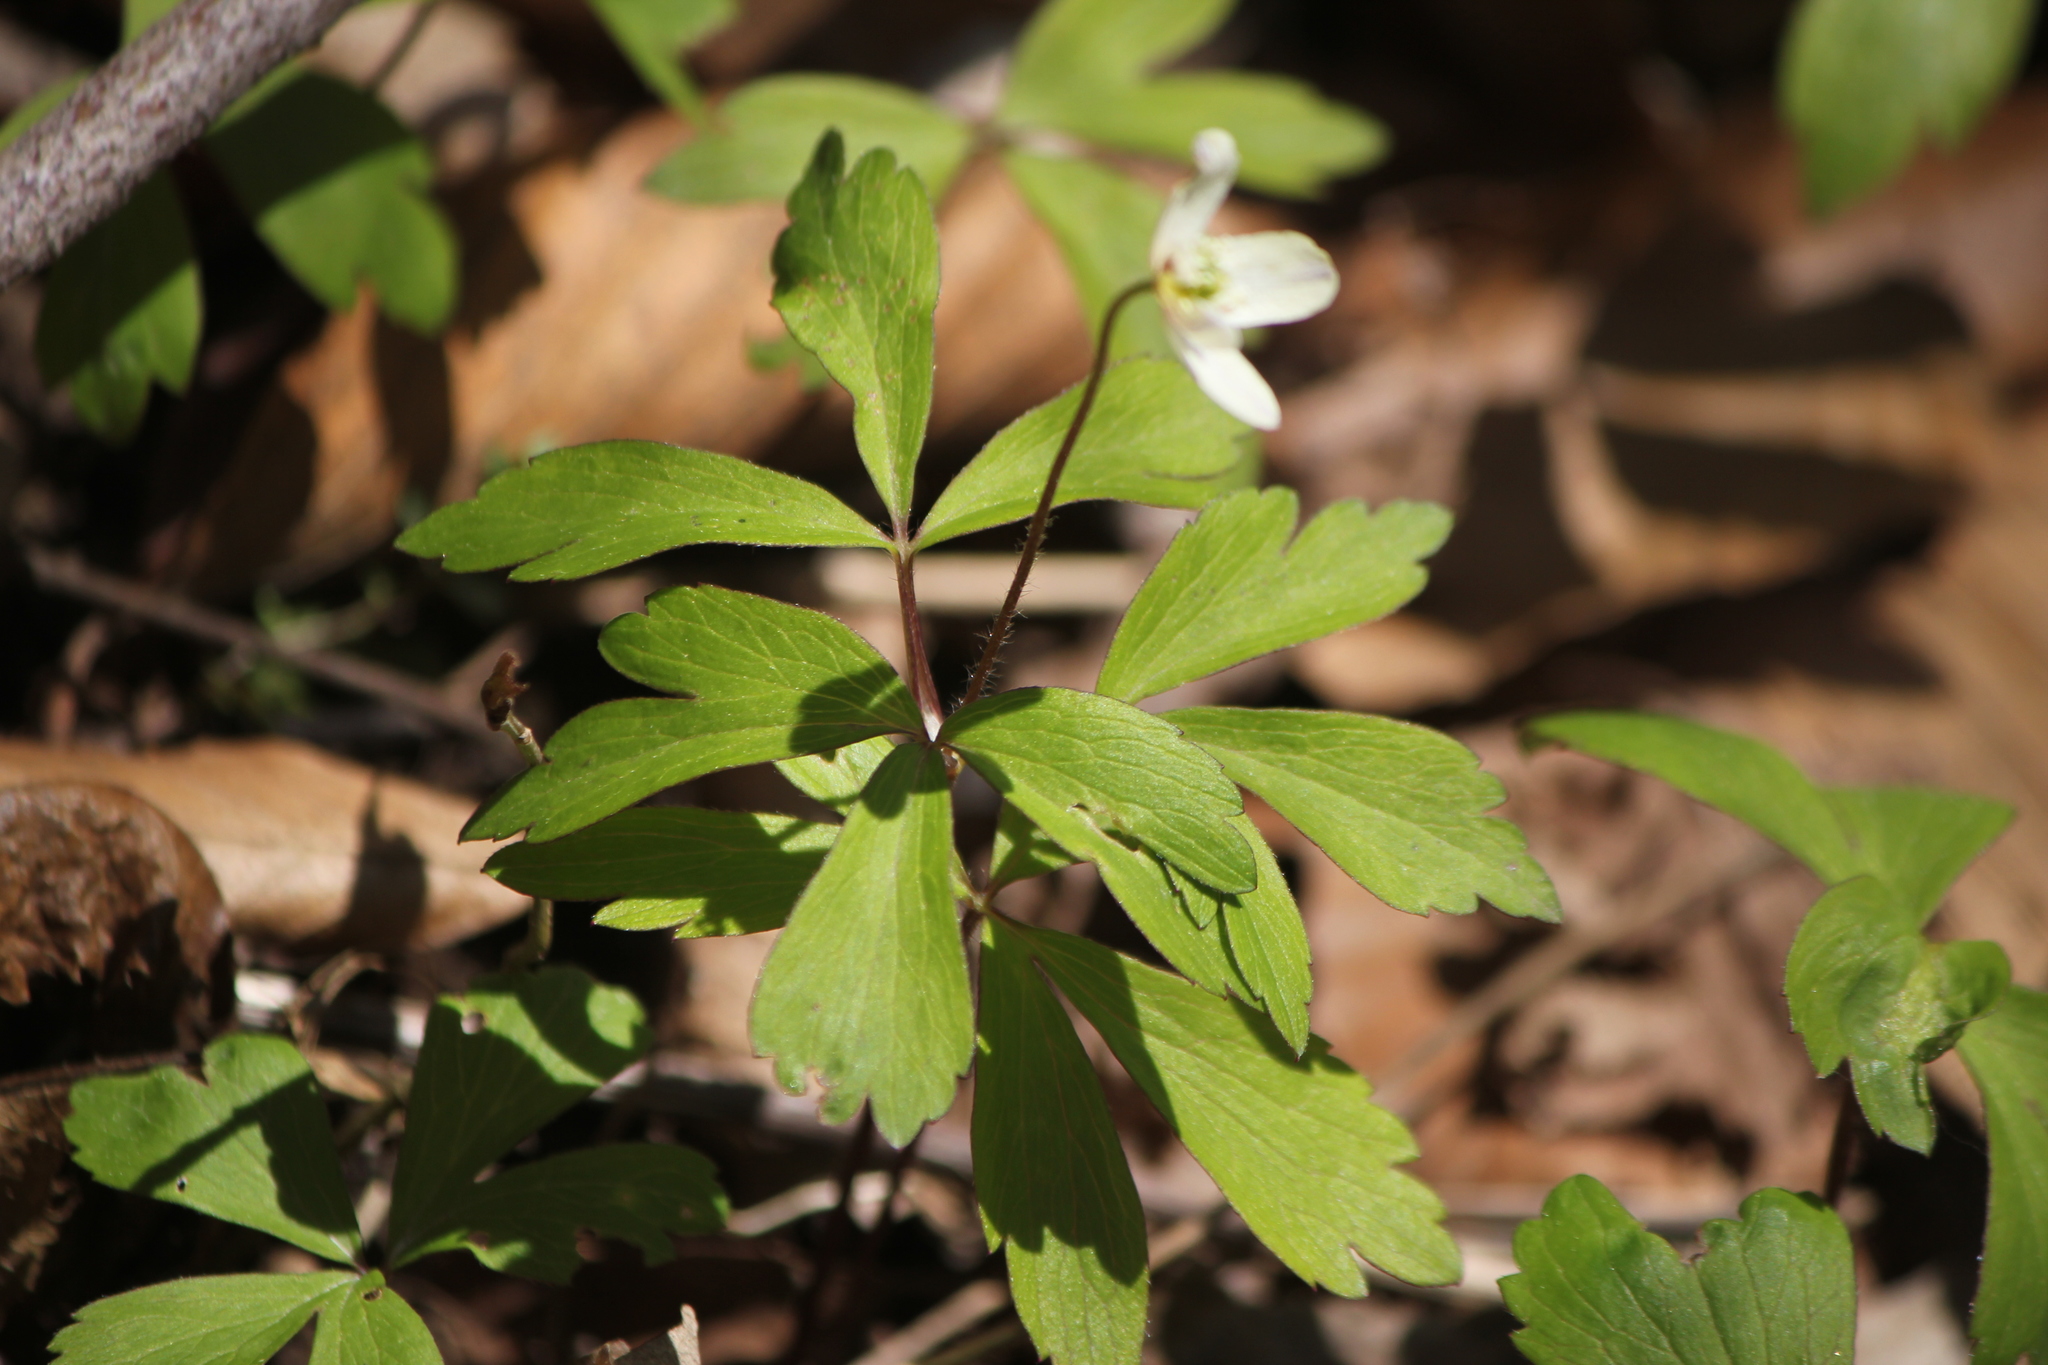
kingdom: Plantae
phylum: Tracheophyta
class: Magnoliopsida
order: Ranunculales
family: Ranunculaceae
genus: Anemone
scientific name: Anemone quinquefolia
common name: Wood anemone
